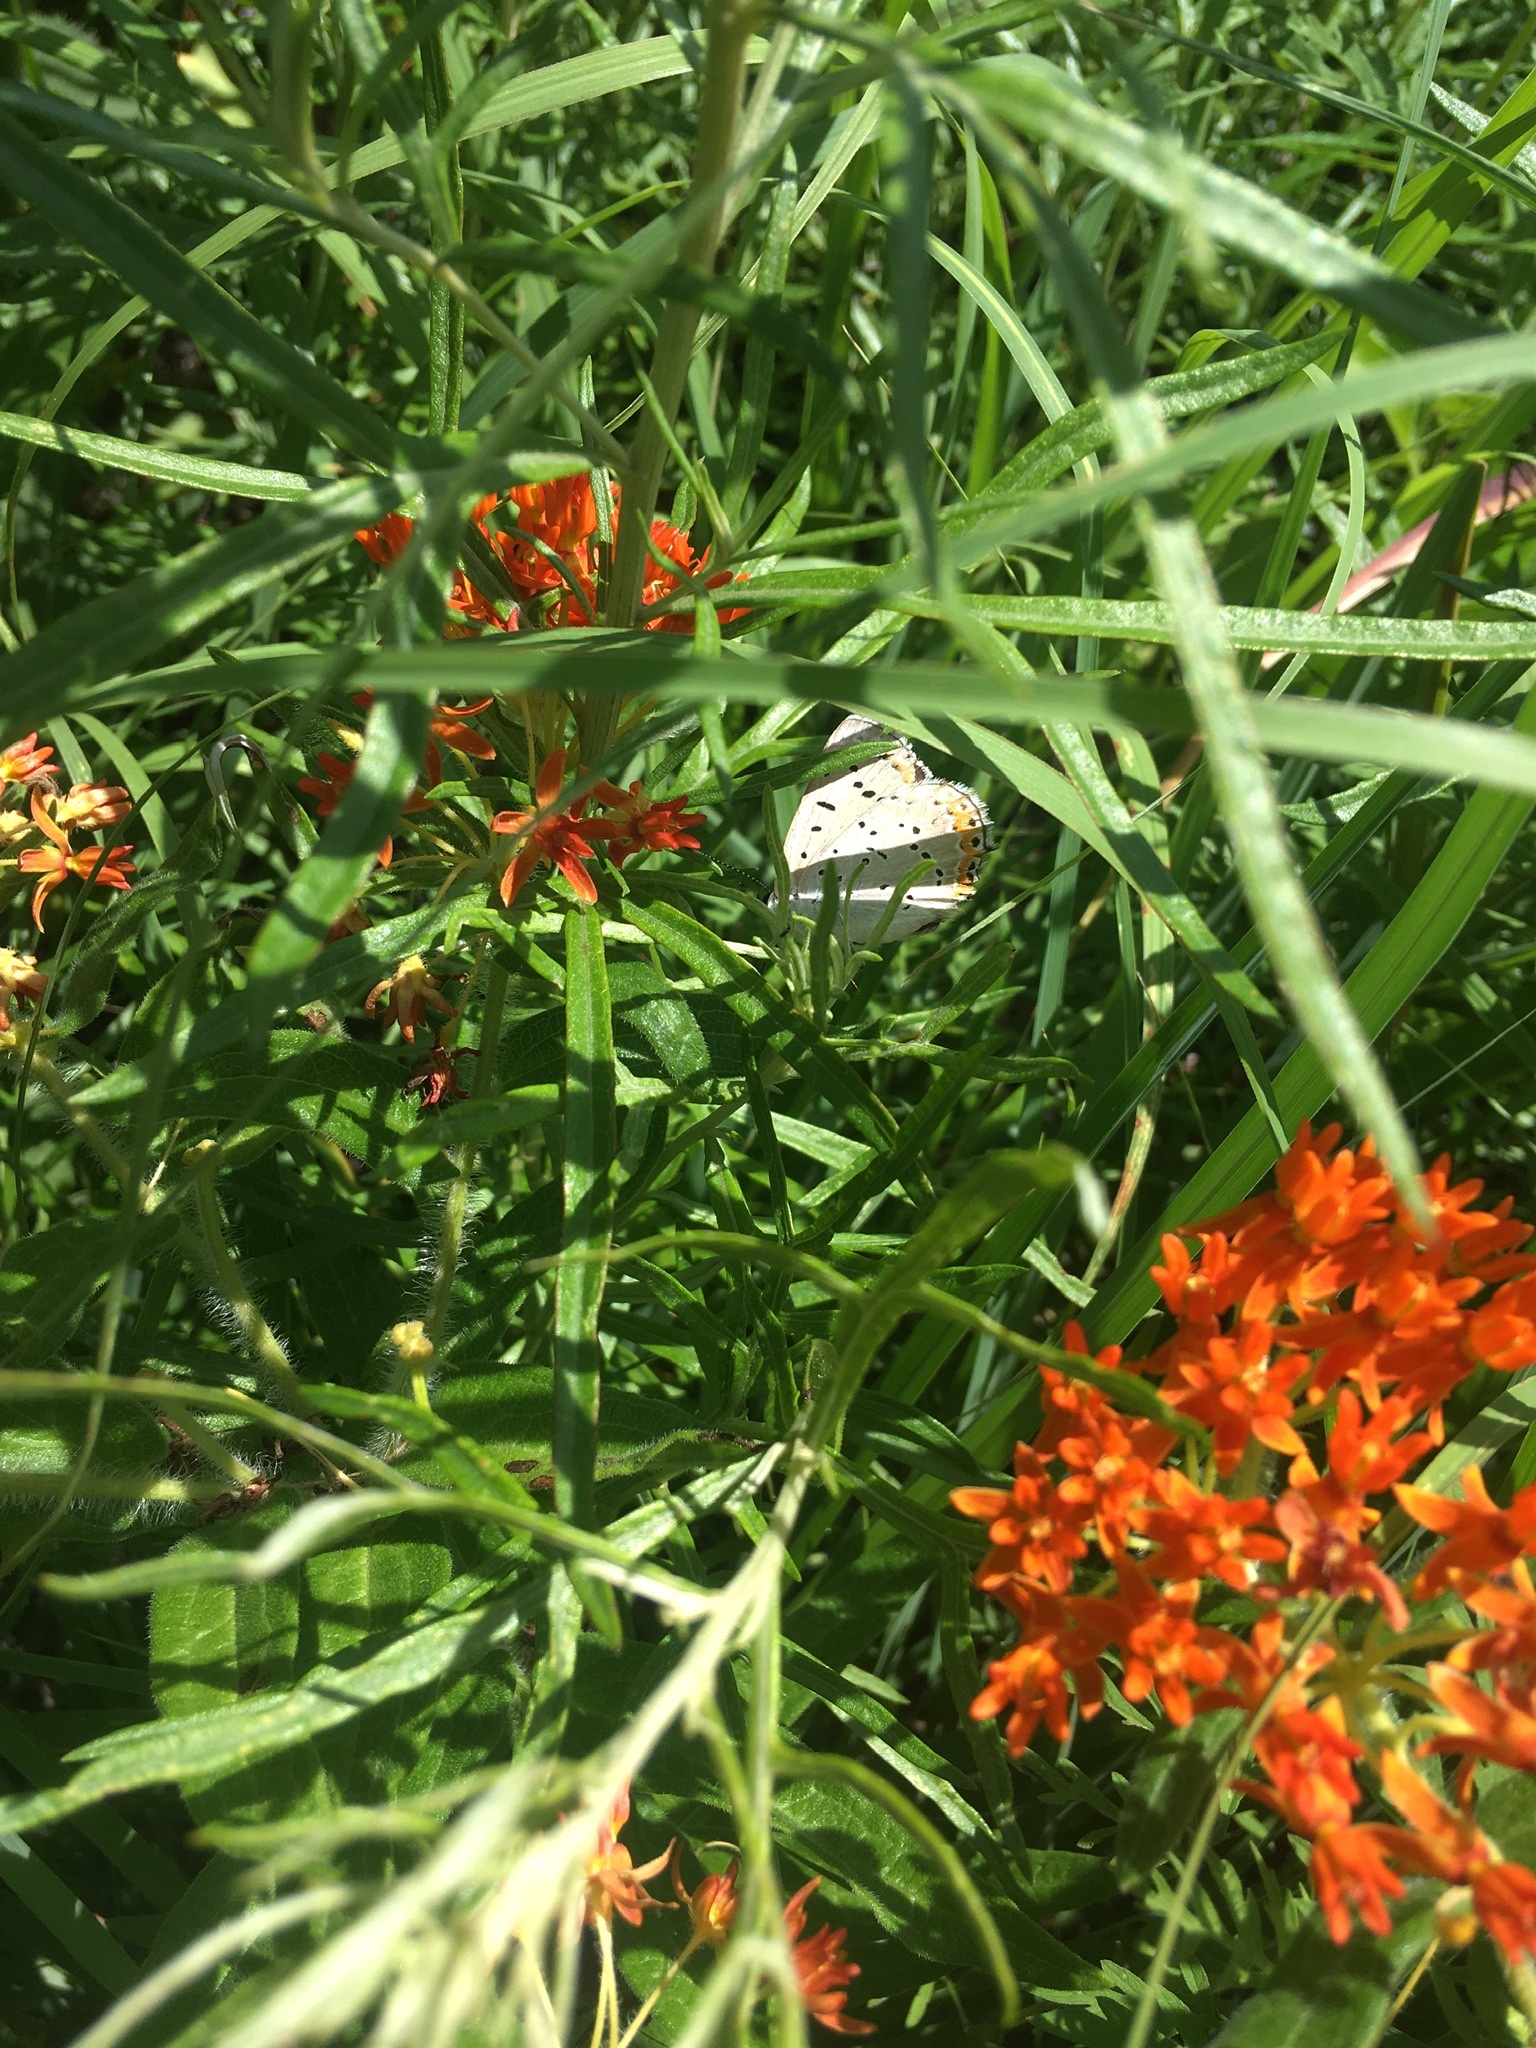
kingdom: Animalia
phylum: Arthropoda
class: Insecta
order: Lepidoptera
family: Lycaenidae
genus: Tharsalea
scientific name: Tharsalea dione
